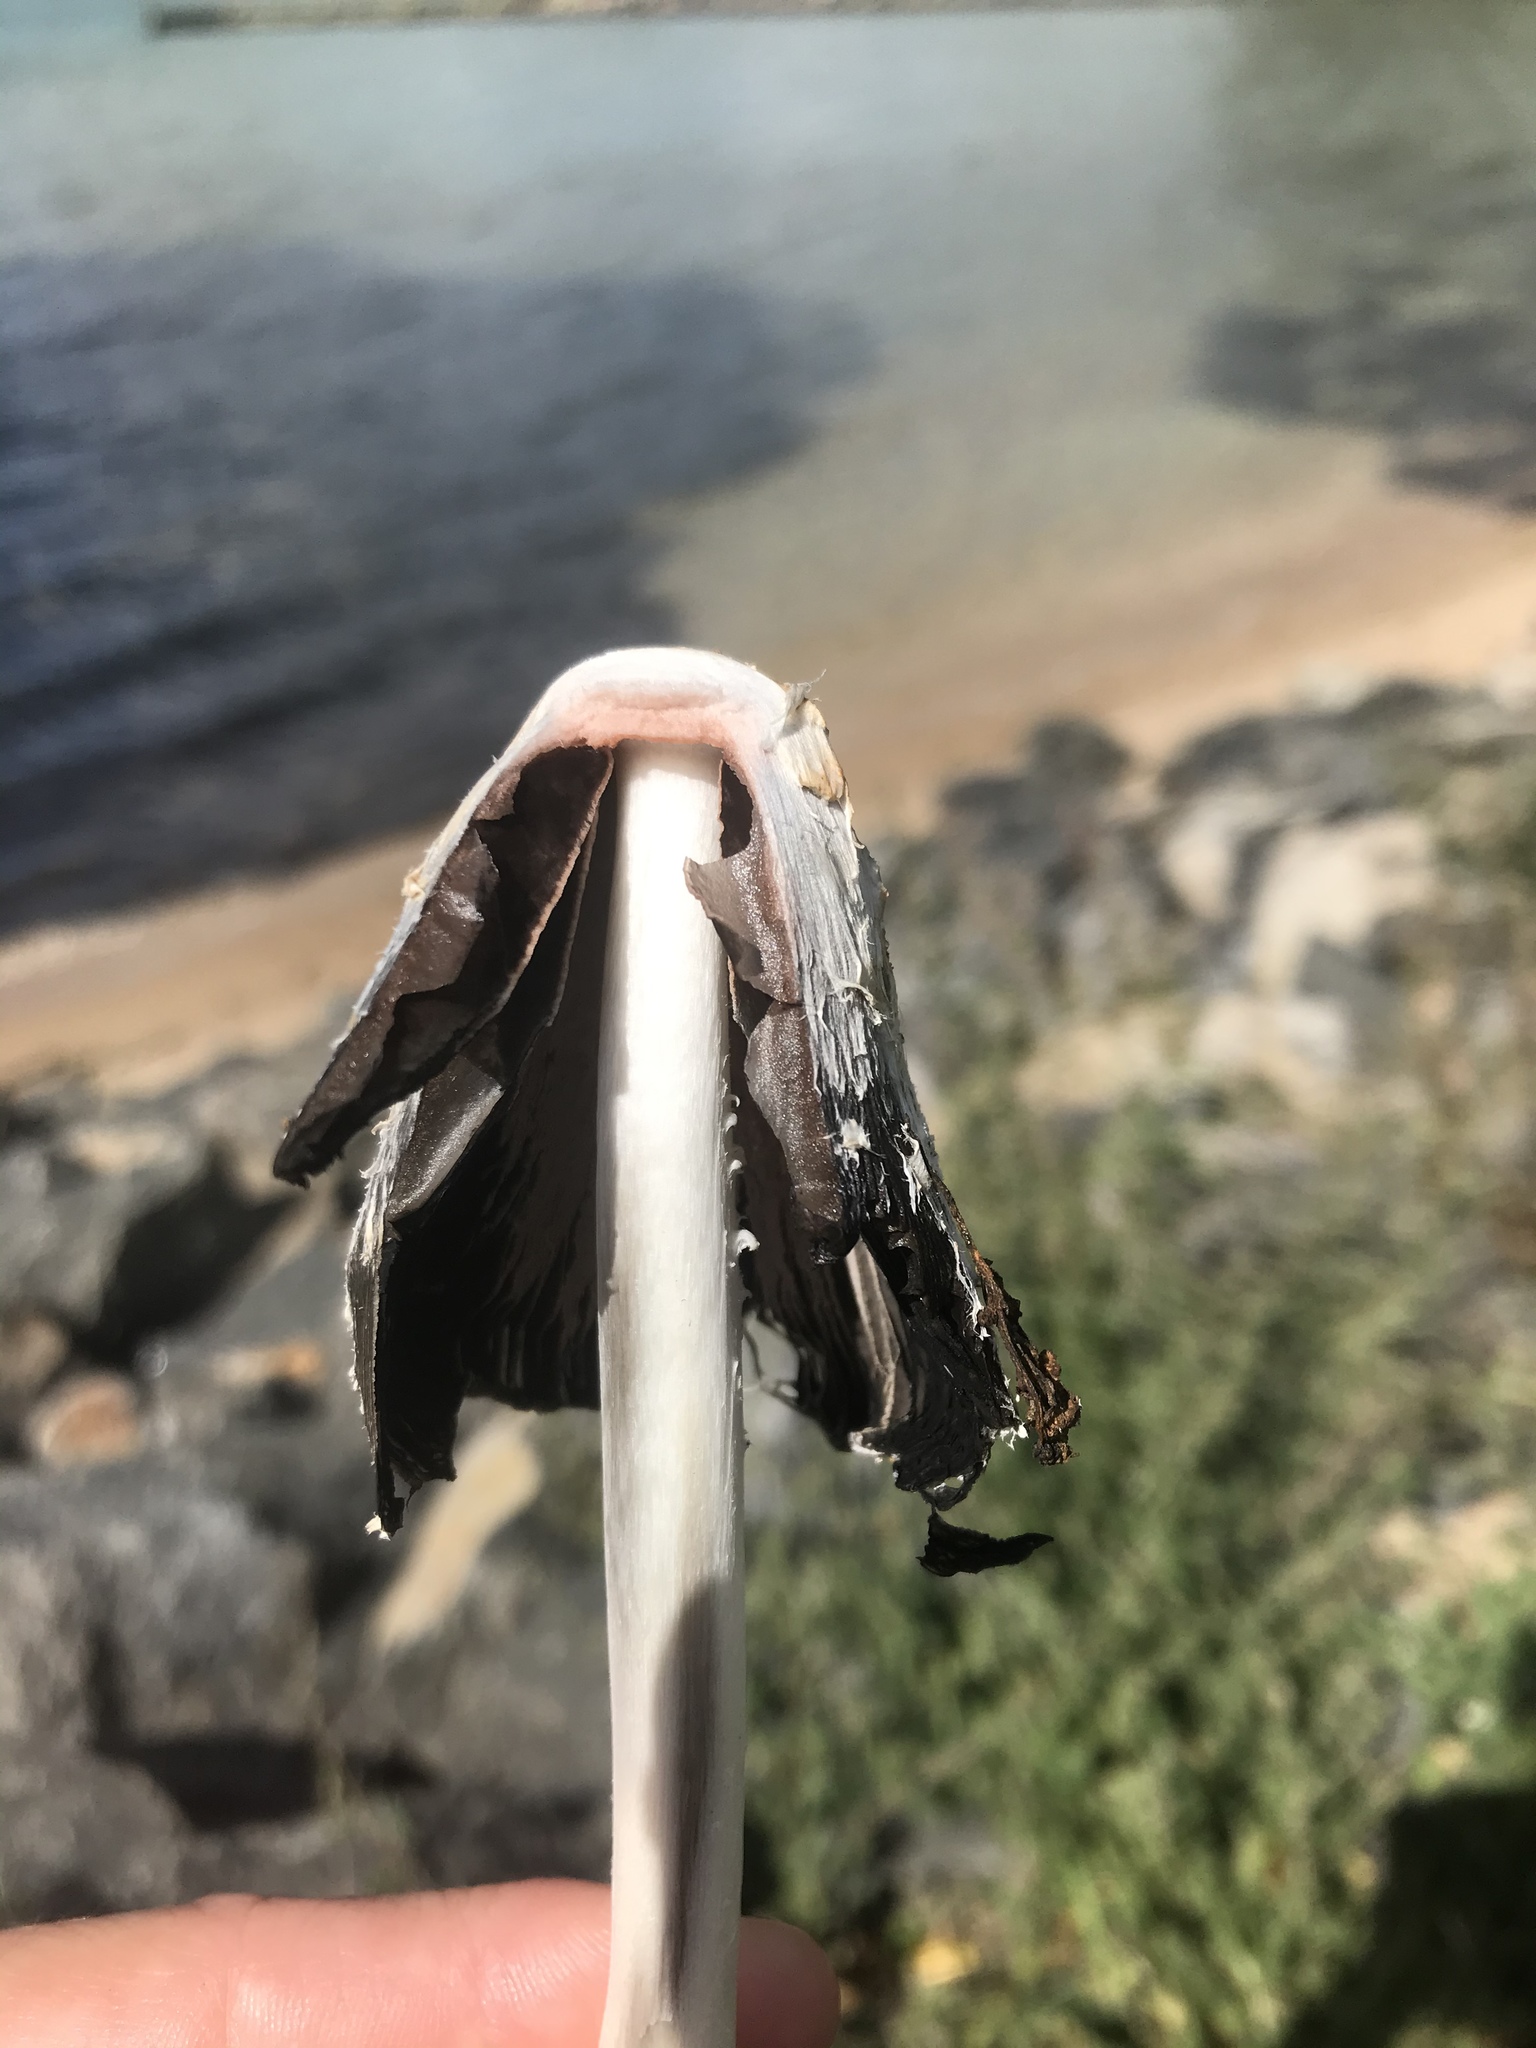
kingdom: Fungi
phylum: Basidiomycota
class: Agaricomycetes
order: Agaricales
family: Agaricaceae
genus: Coprinus
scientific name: Coprinus comatus
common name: Lawyer's wig
